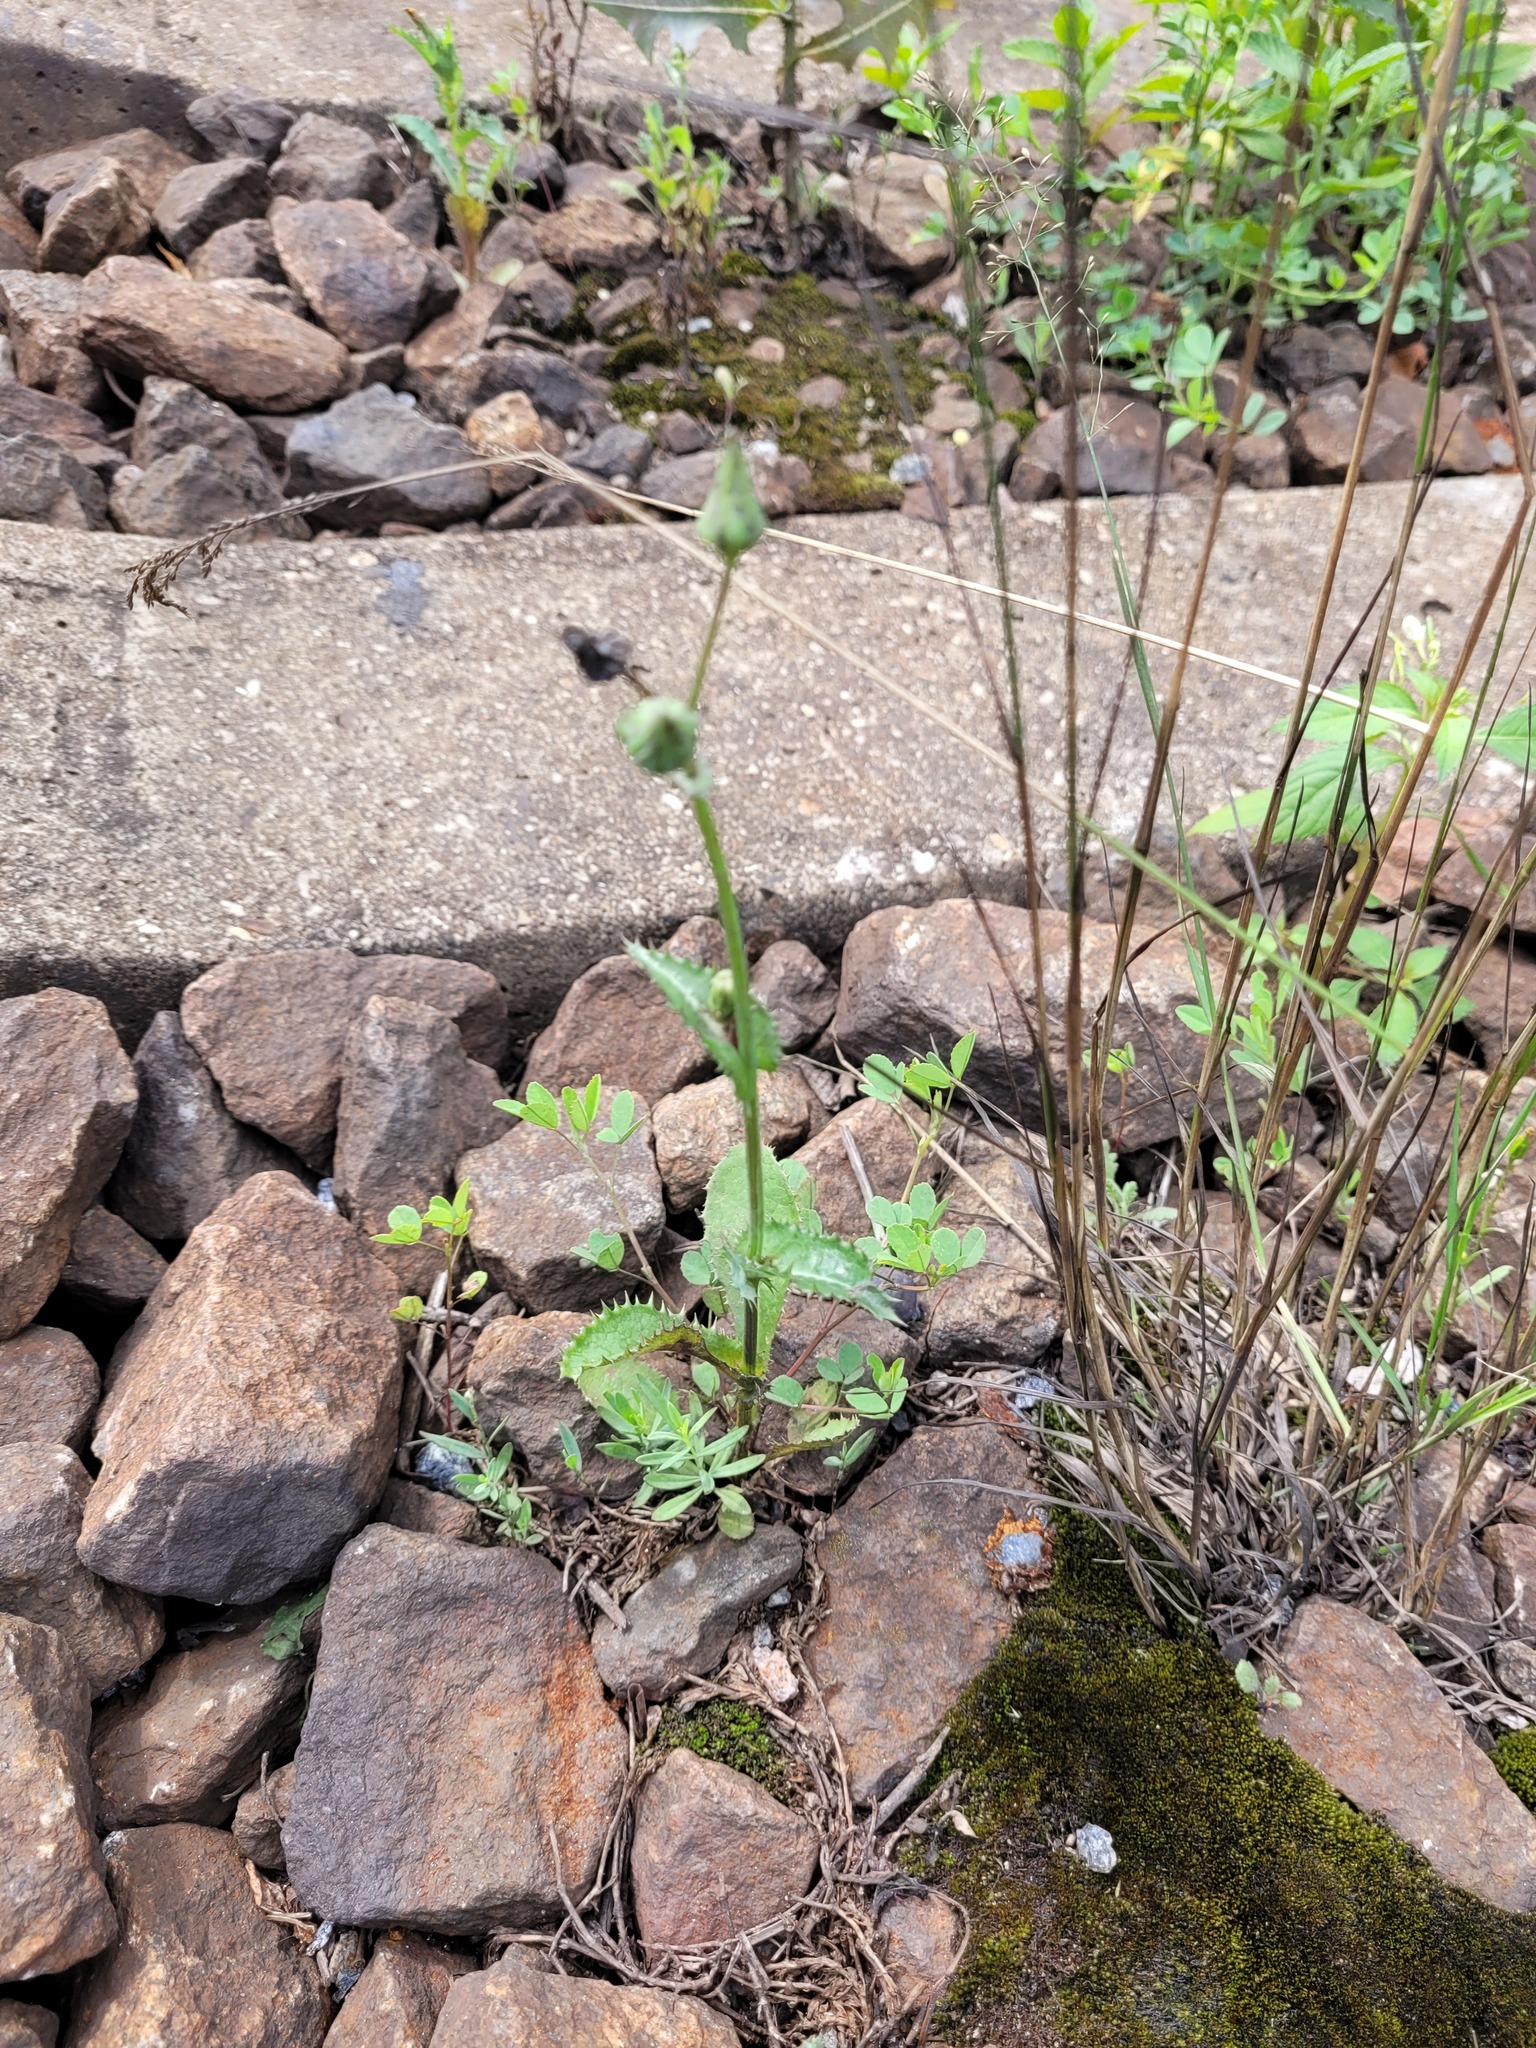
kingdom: Plantae
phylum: Tracheophyta
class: Magnoliopsida
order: Asterales
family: Asteraceae
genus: Sonchus
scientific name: Sonchus asper
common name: Prickly sow-thistle
